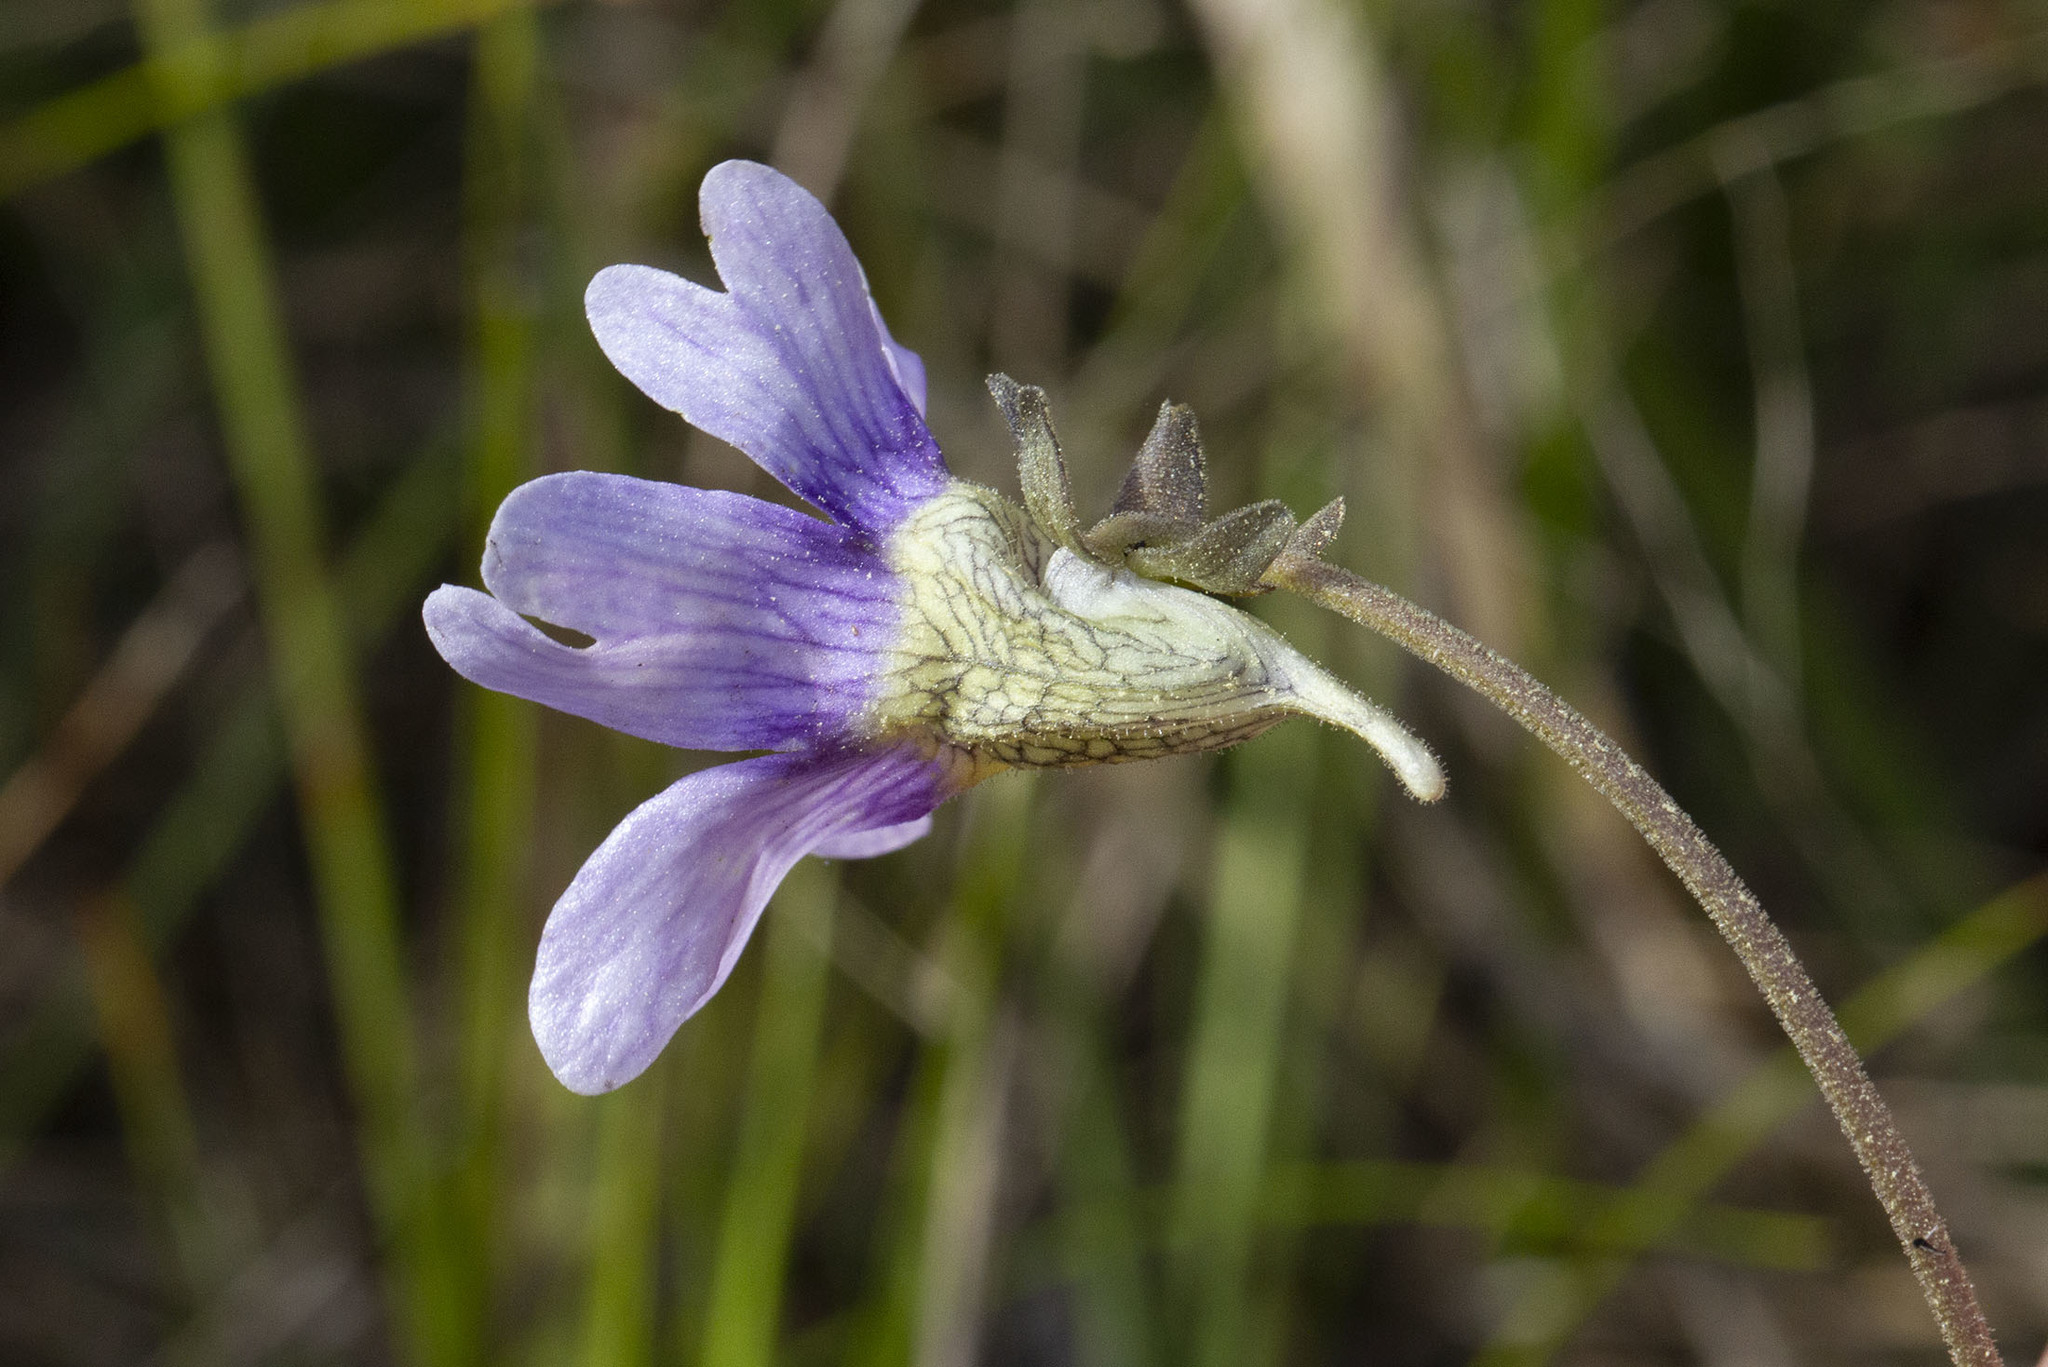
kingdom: Plantae
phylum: Tracheophyta
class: Magnoliopsida
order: Lamiales
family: Lentibulariaceae
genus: Pinguicula
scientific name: Pinguicula caerulea
